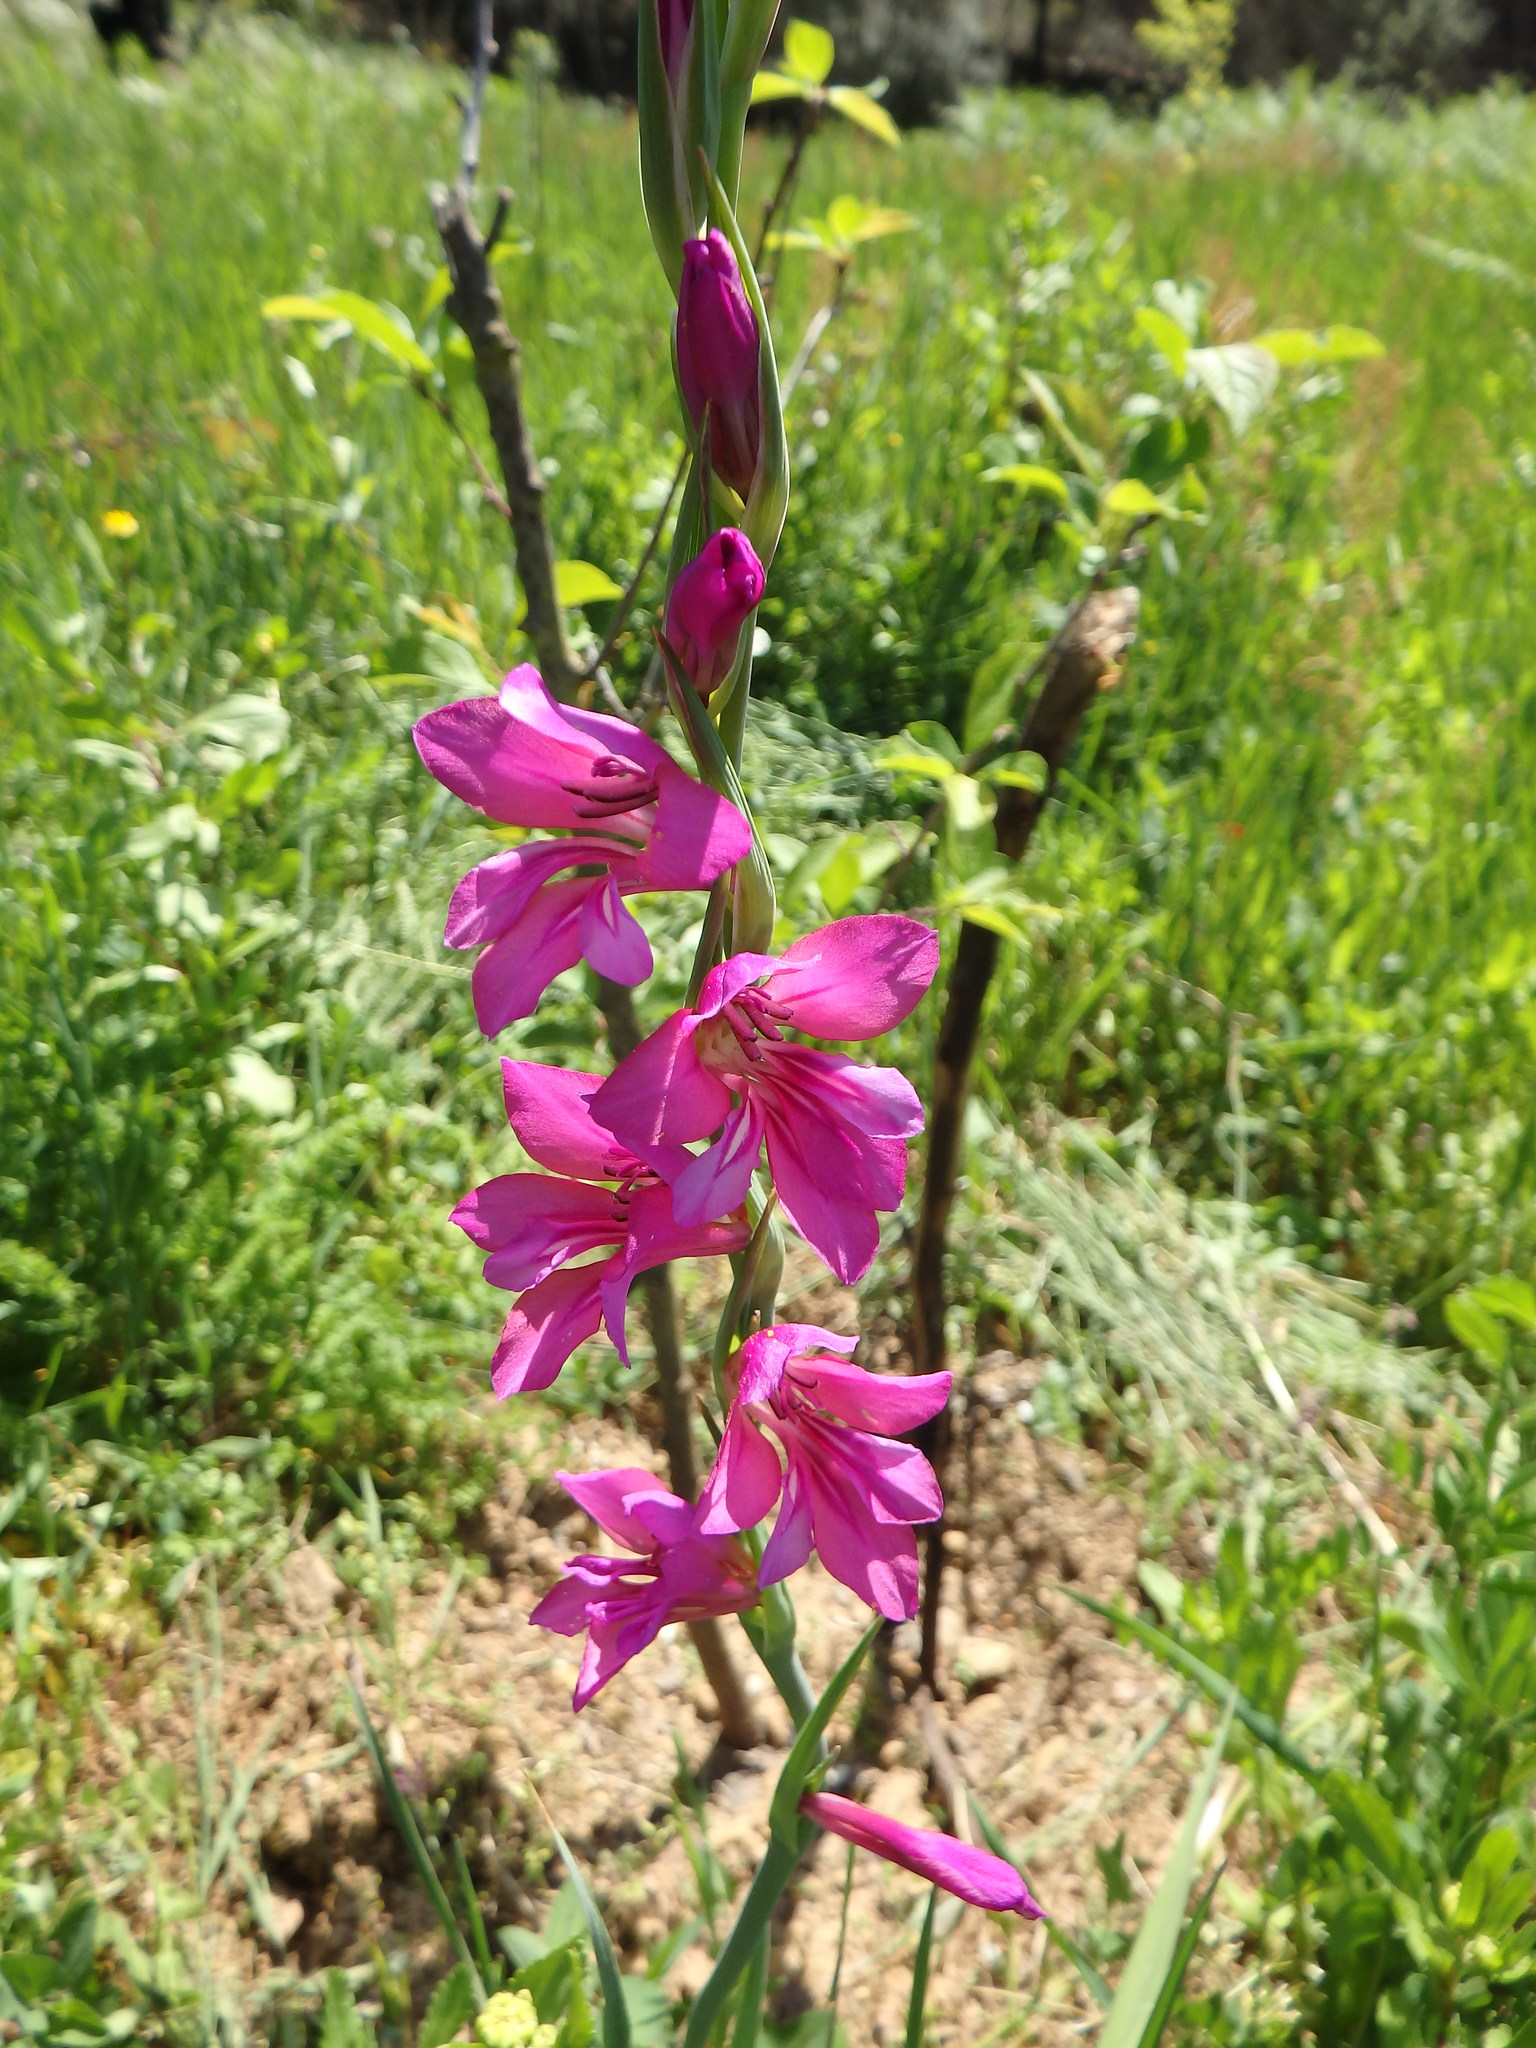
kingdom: Plantae
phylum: Tracheophyta
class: Liliopsida
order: Asparagales
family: Iridaceae
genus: Gladiolus
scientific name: Gladiolus illyricus
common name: Wild gladiolus
